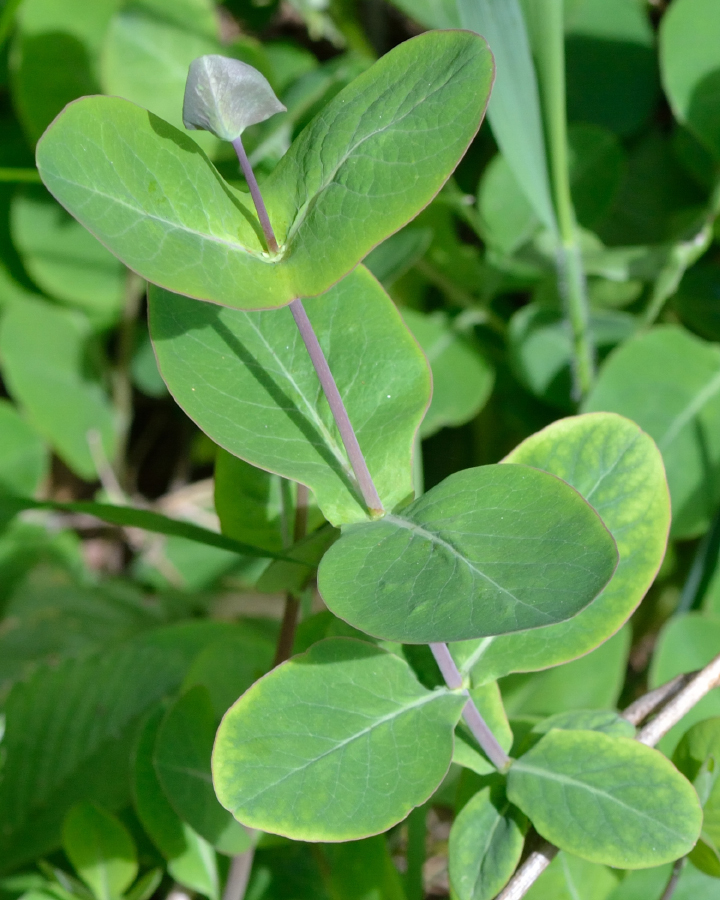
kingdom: Plantae
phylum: Tracheophyta
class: Magnoliopsida
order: Dipsacales
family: Caprifoliaceae
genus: Lonicera
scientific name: Lonicera caprifolium
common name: Perfoliate honeysuckle
